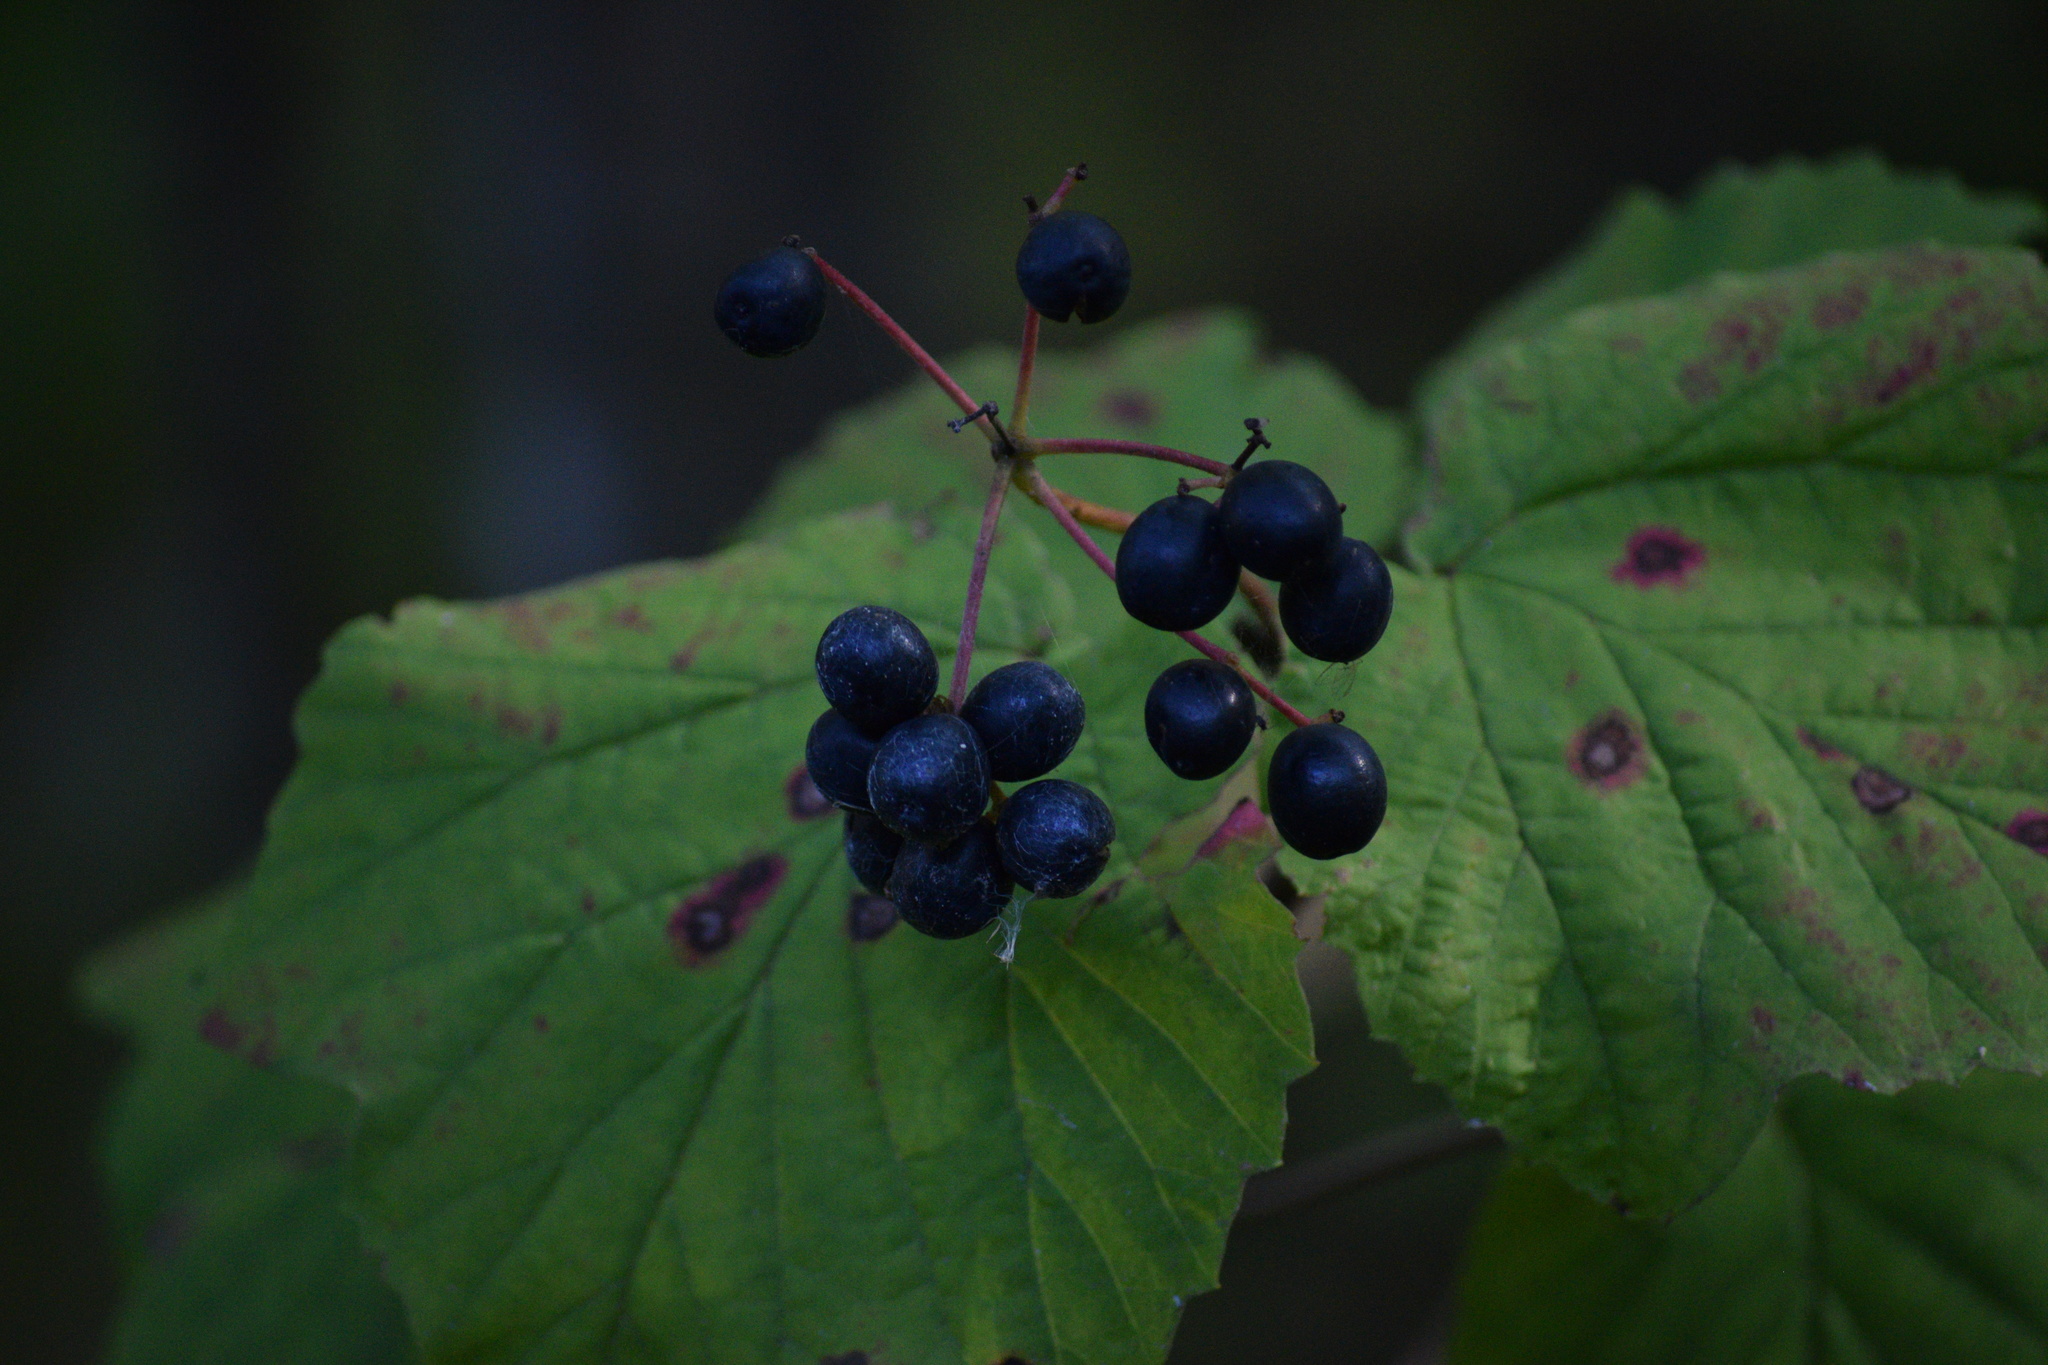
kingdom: Plantae
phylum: Tracheophyta
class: Magnoliopsida
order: Dipsacales
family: Viburnaceae
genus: Viburnum
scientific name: Viburnum acerifolium
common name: Dockmackie
